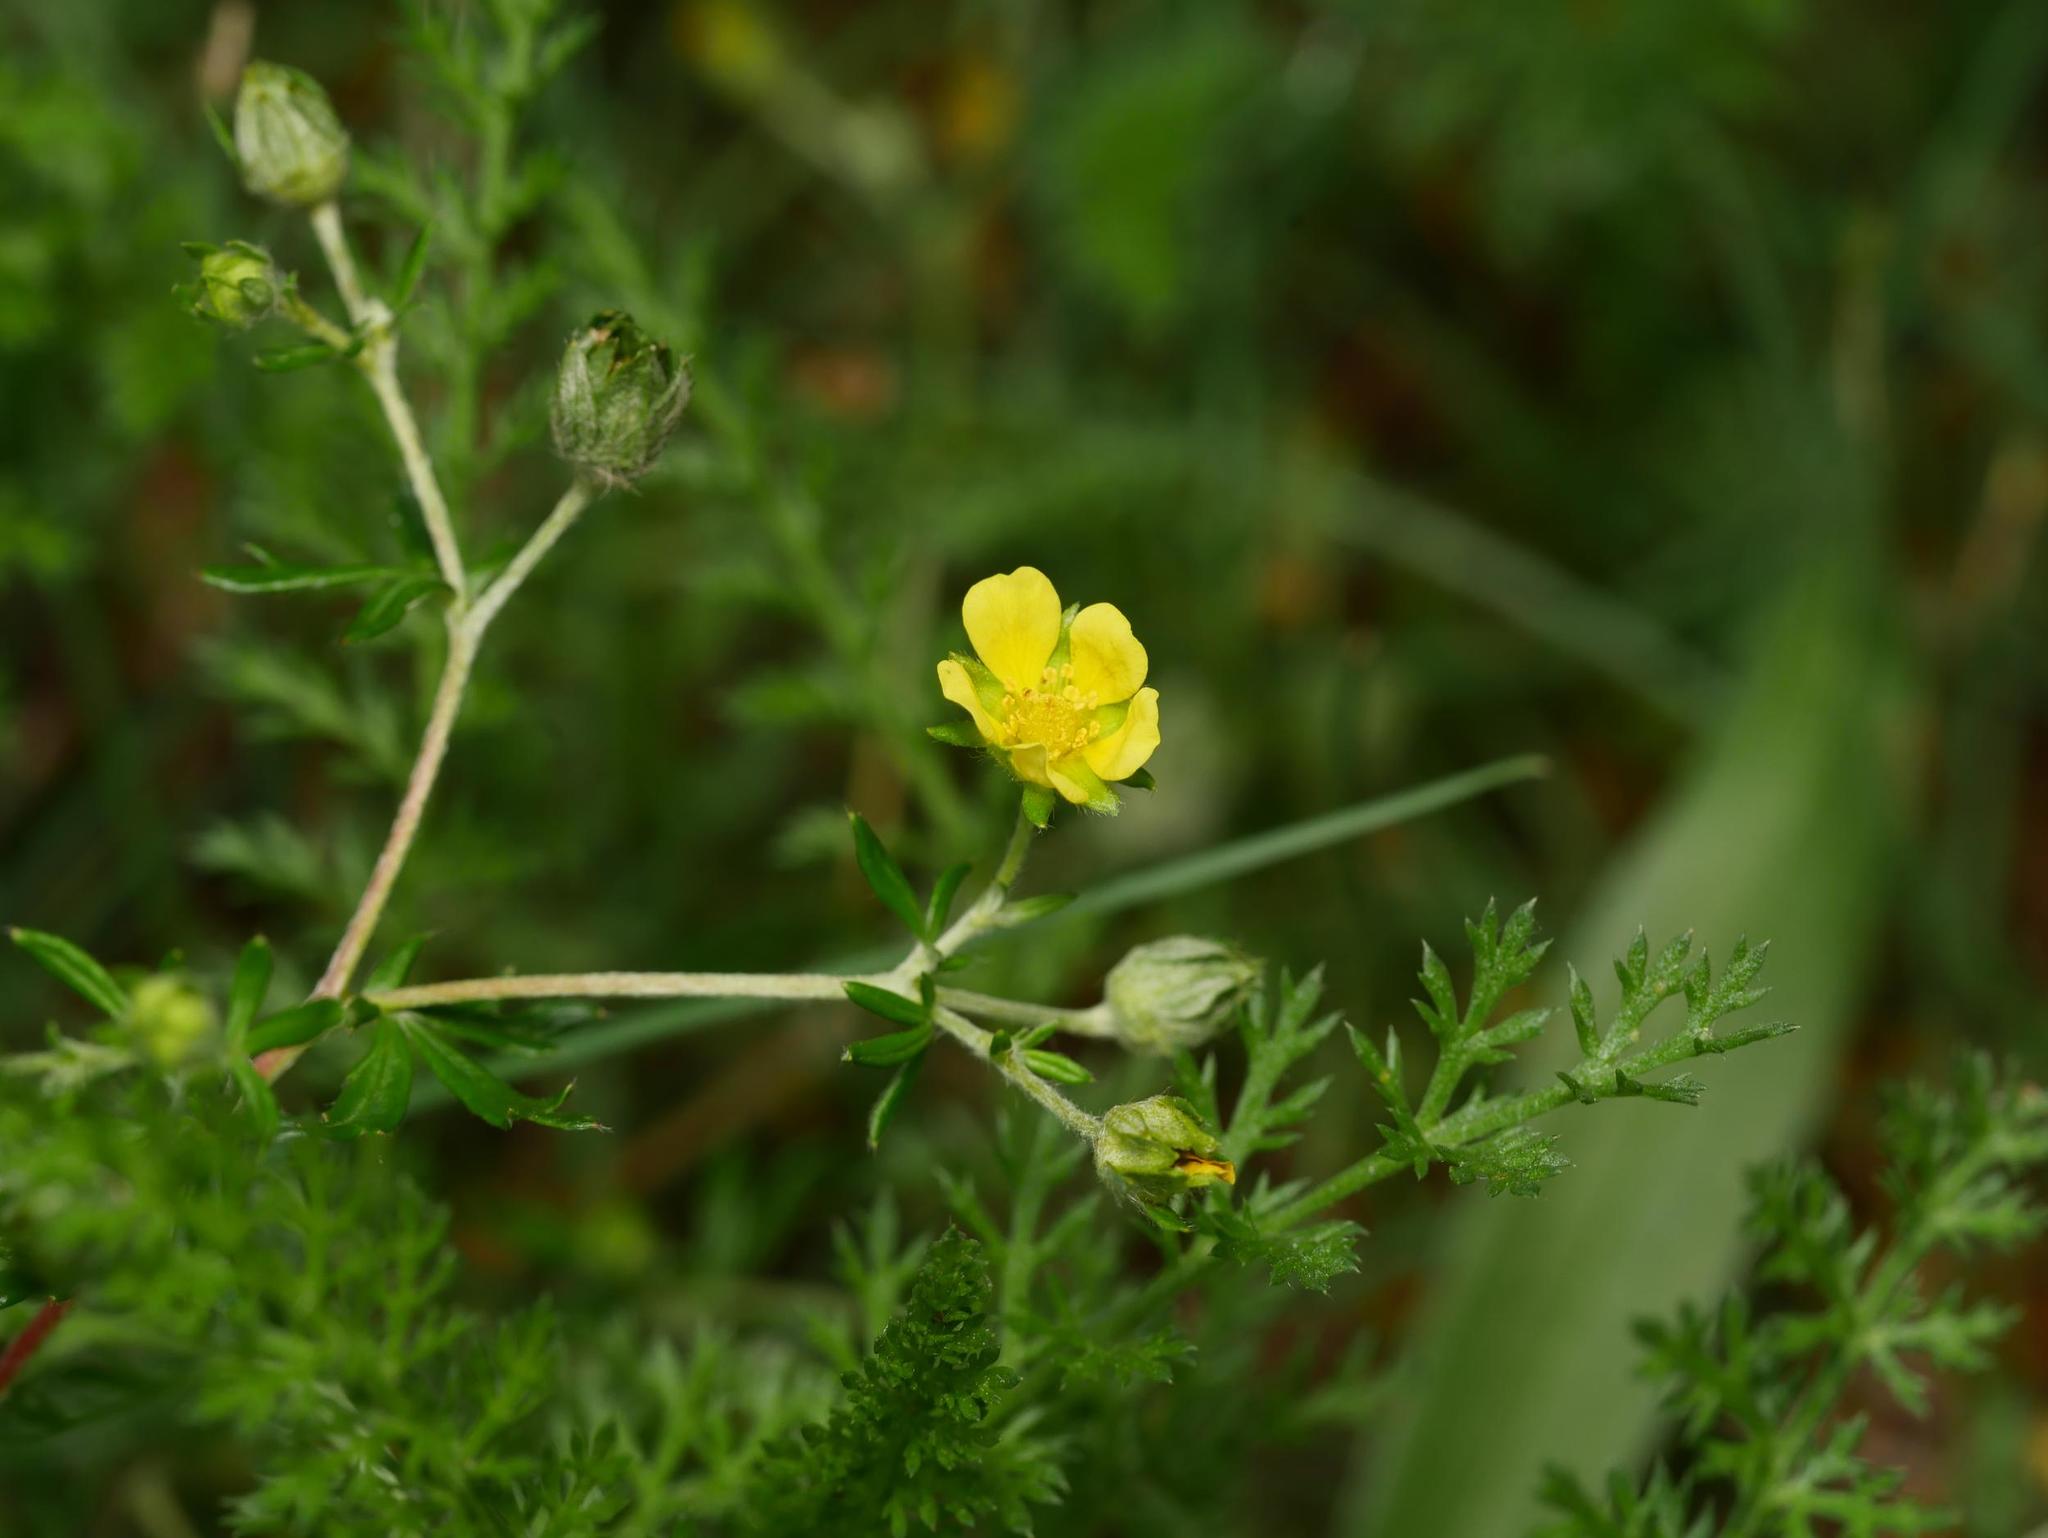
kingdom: Plantae
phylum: Tracheophyta
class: Magnoliopsida
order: Rosales
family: Rosaceae
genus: Potentilla
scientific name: Potentilla argentea
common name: Hoary cinquefoil
